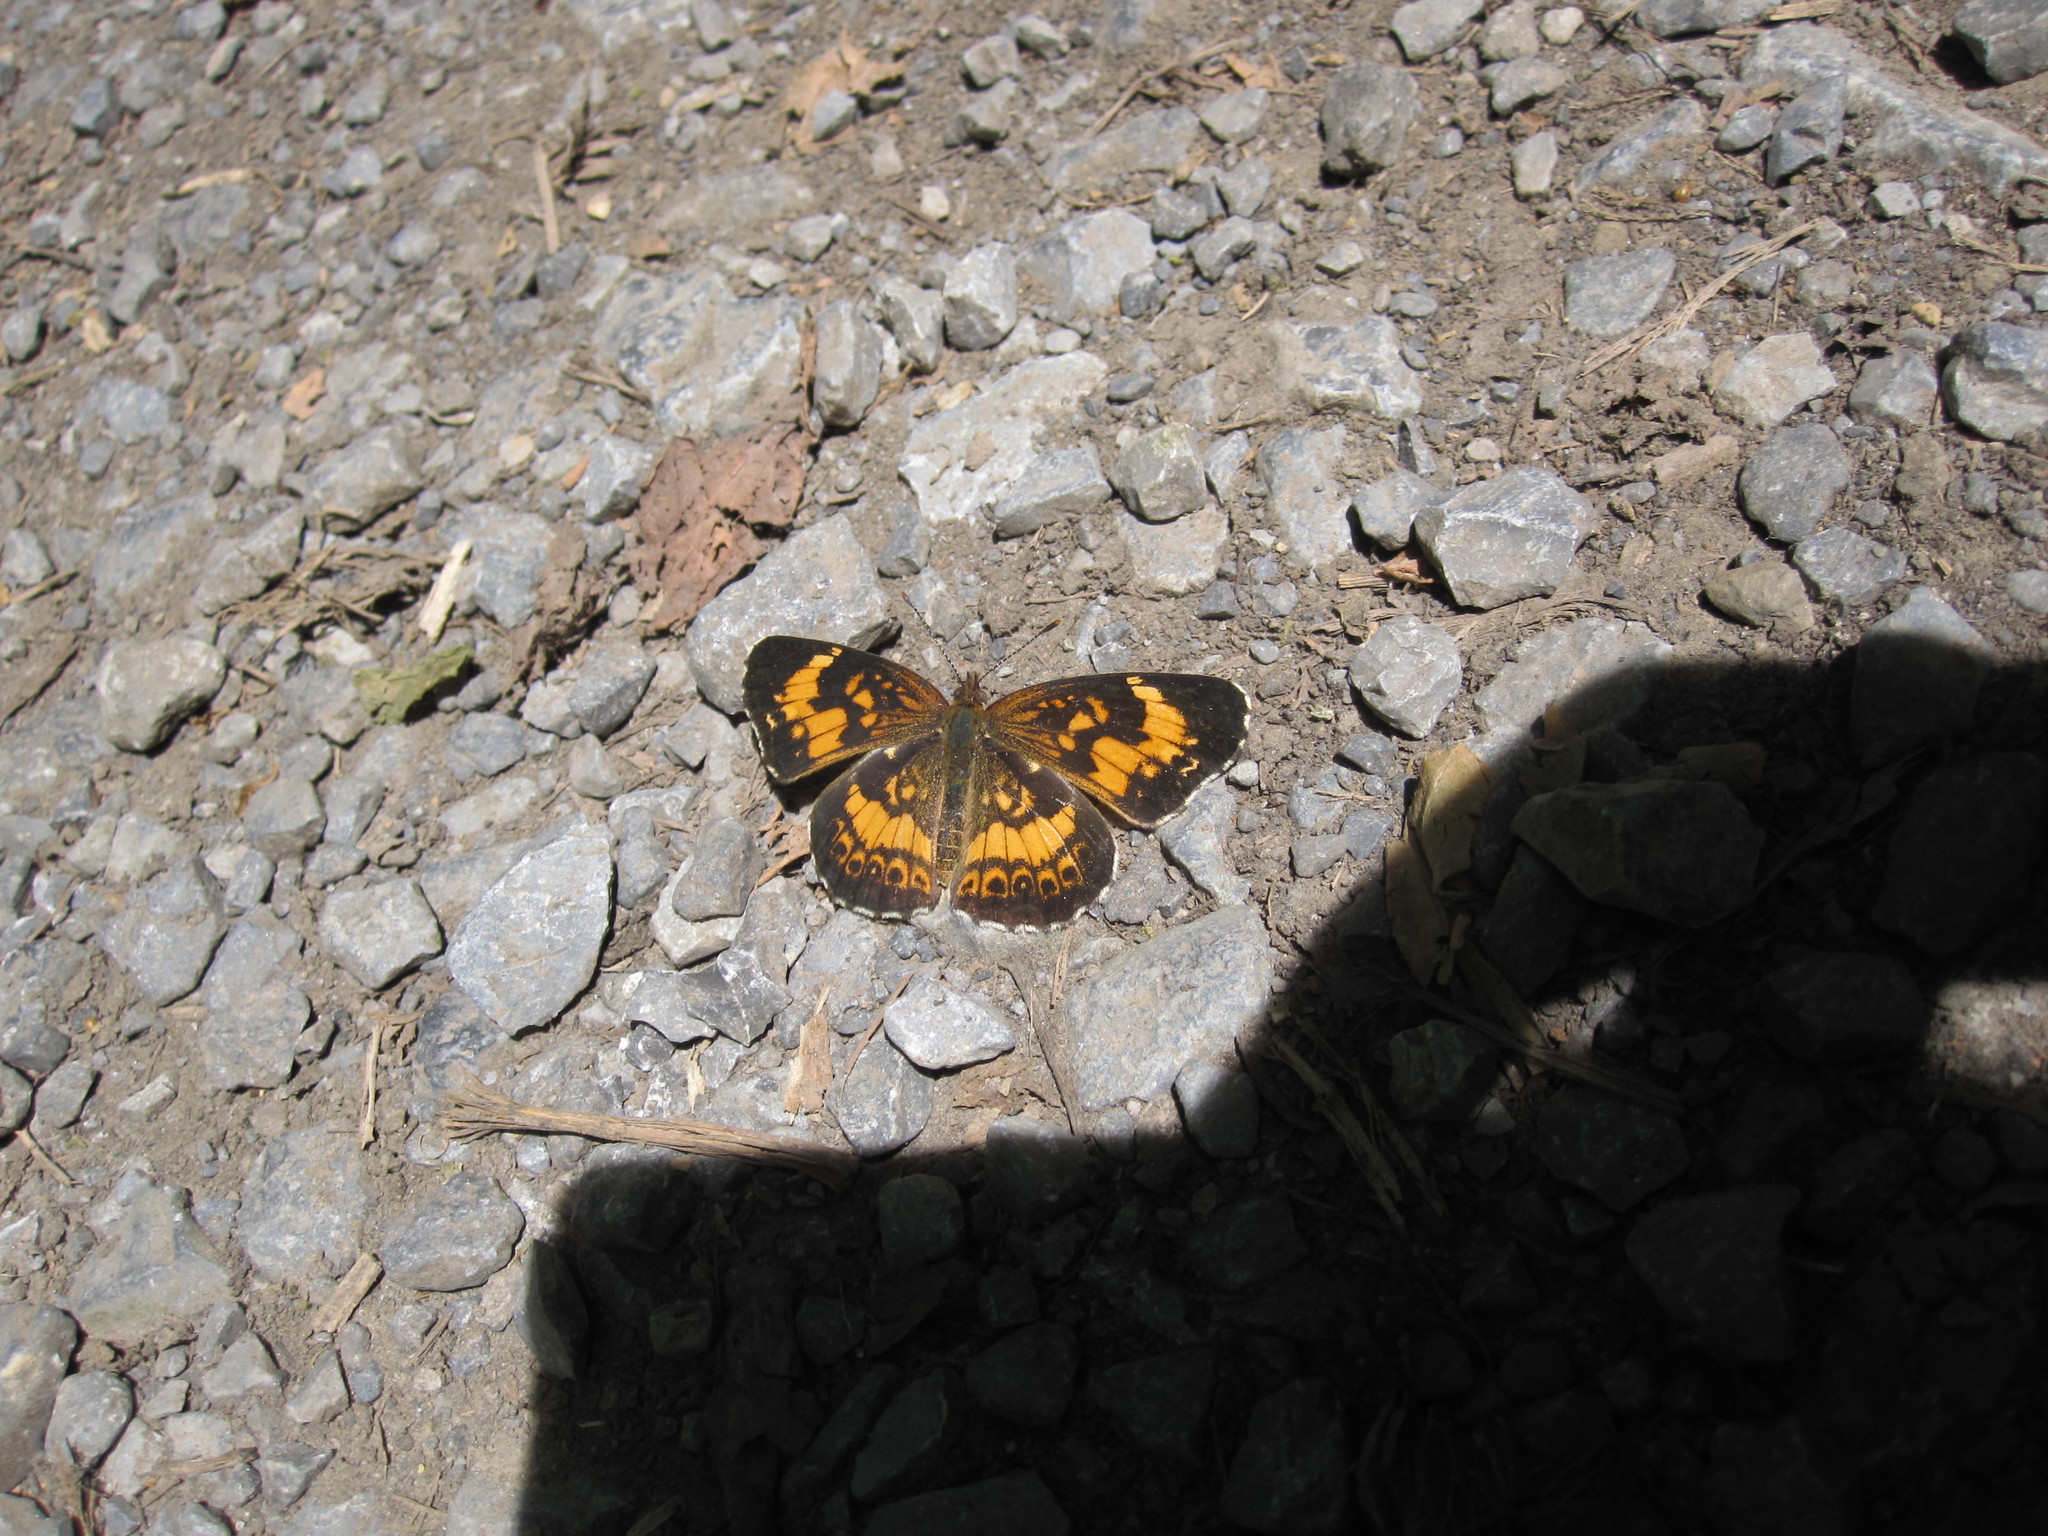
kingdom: Animalia
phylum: Arthropoda
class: Insecta
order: Lepidoptera
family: Nymphalidae
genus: Chlosyne
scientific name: Chlosyne nycteis
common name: Silvery checkerspot
